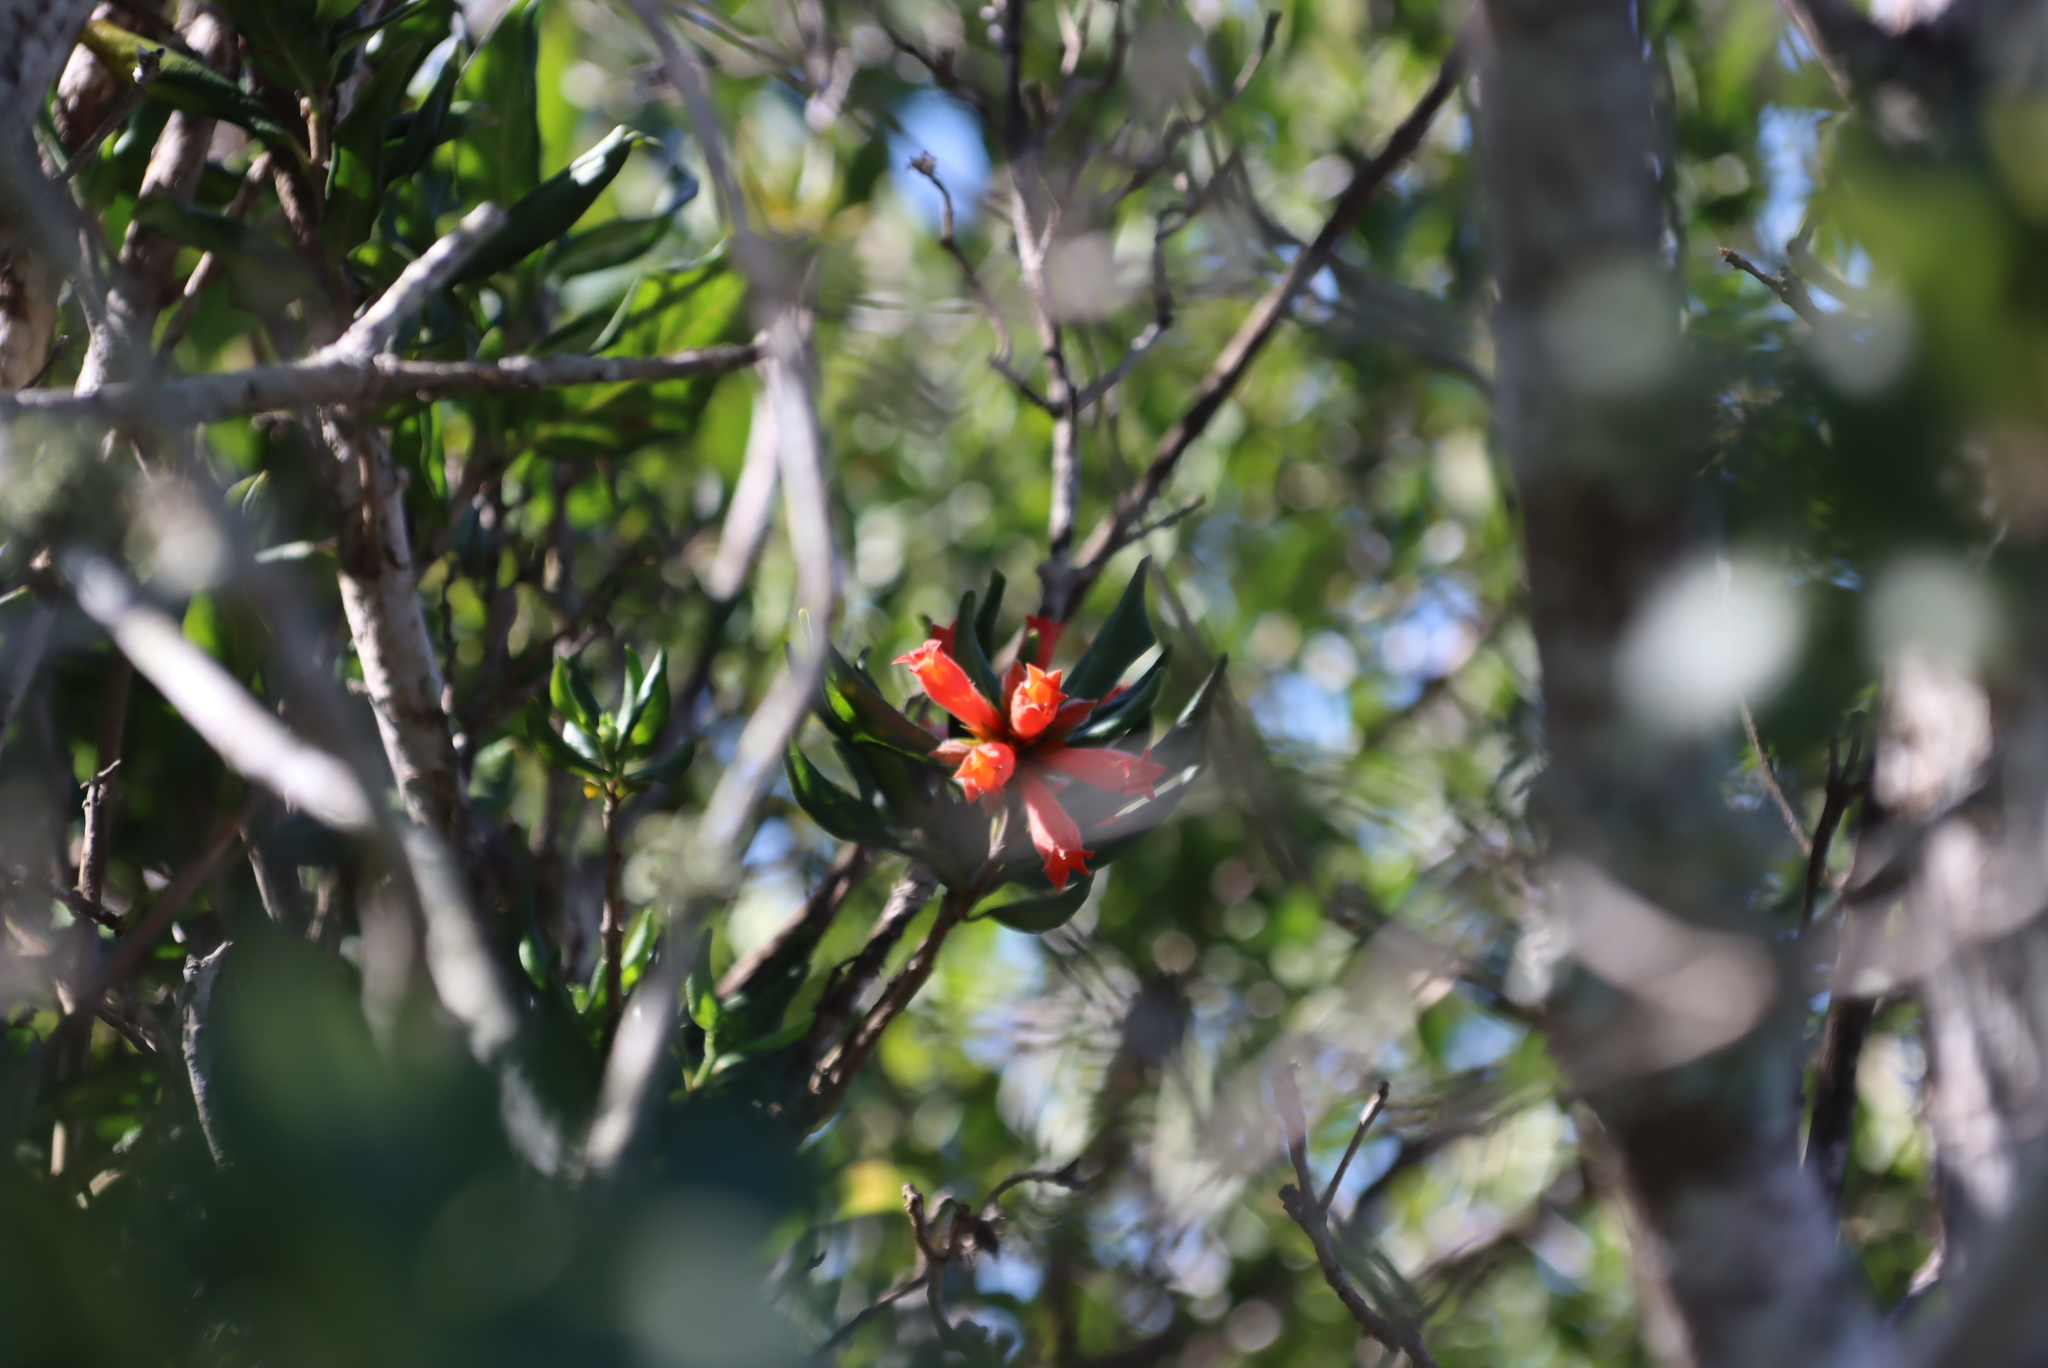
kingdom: Plantae
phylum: Tracheophyta
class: Magnoliopsida
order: Gentianales
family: Rubiaceae
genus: Burchellia
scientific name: Burchellia bubalina
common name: Wild pomegranate
